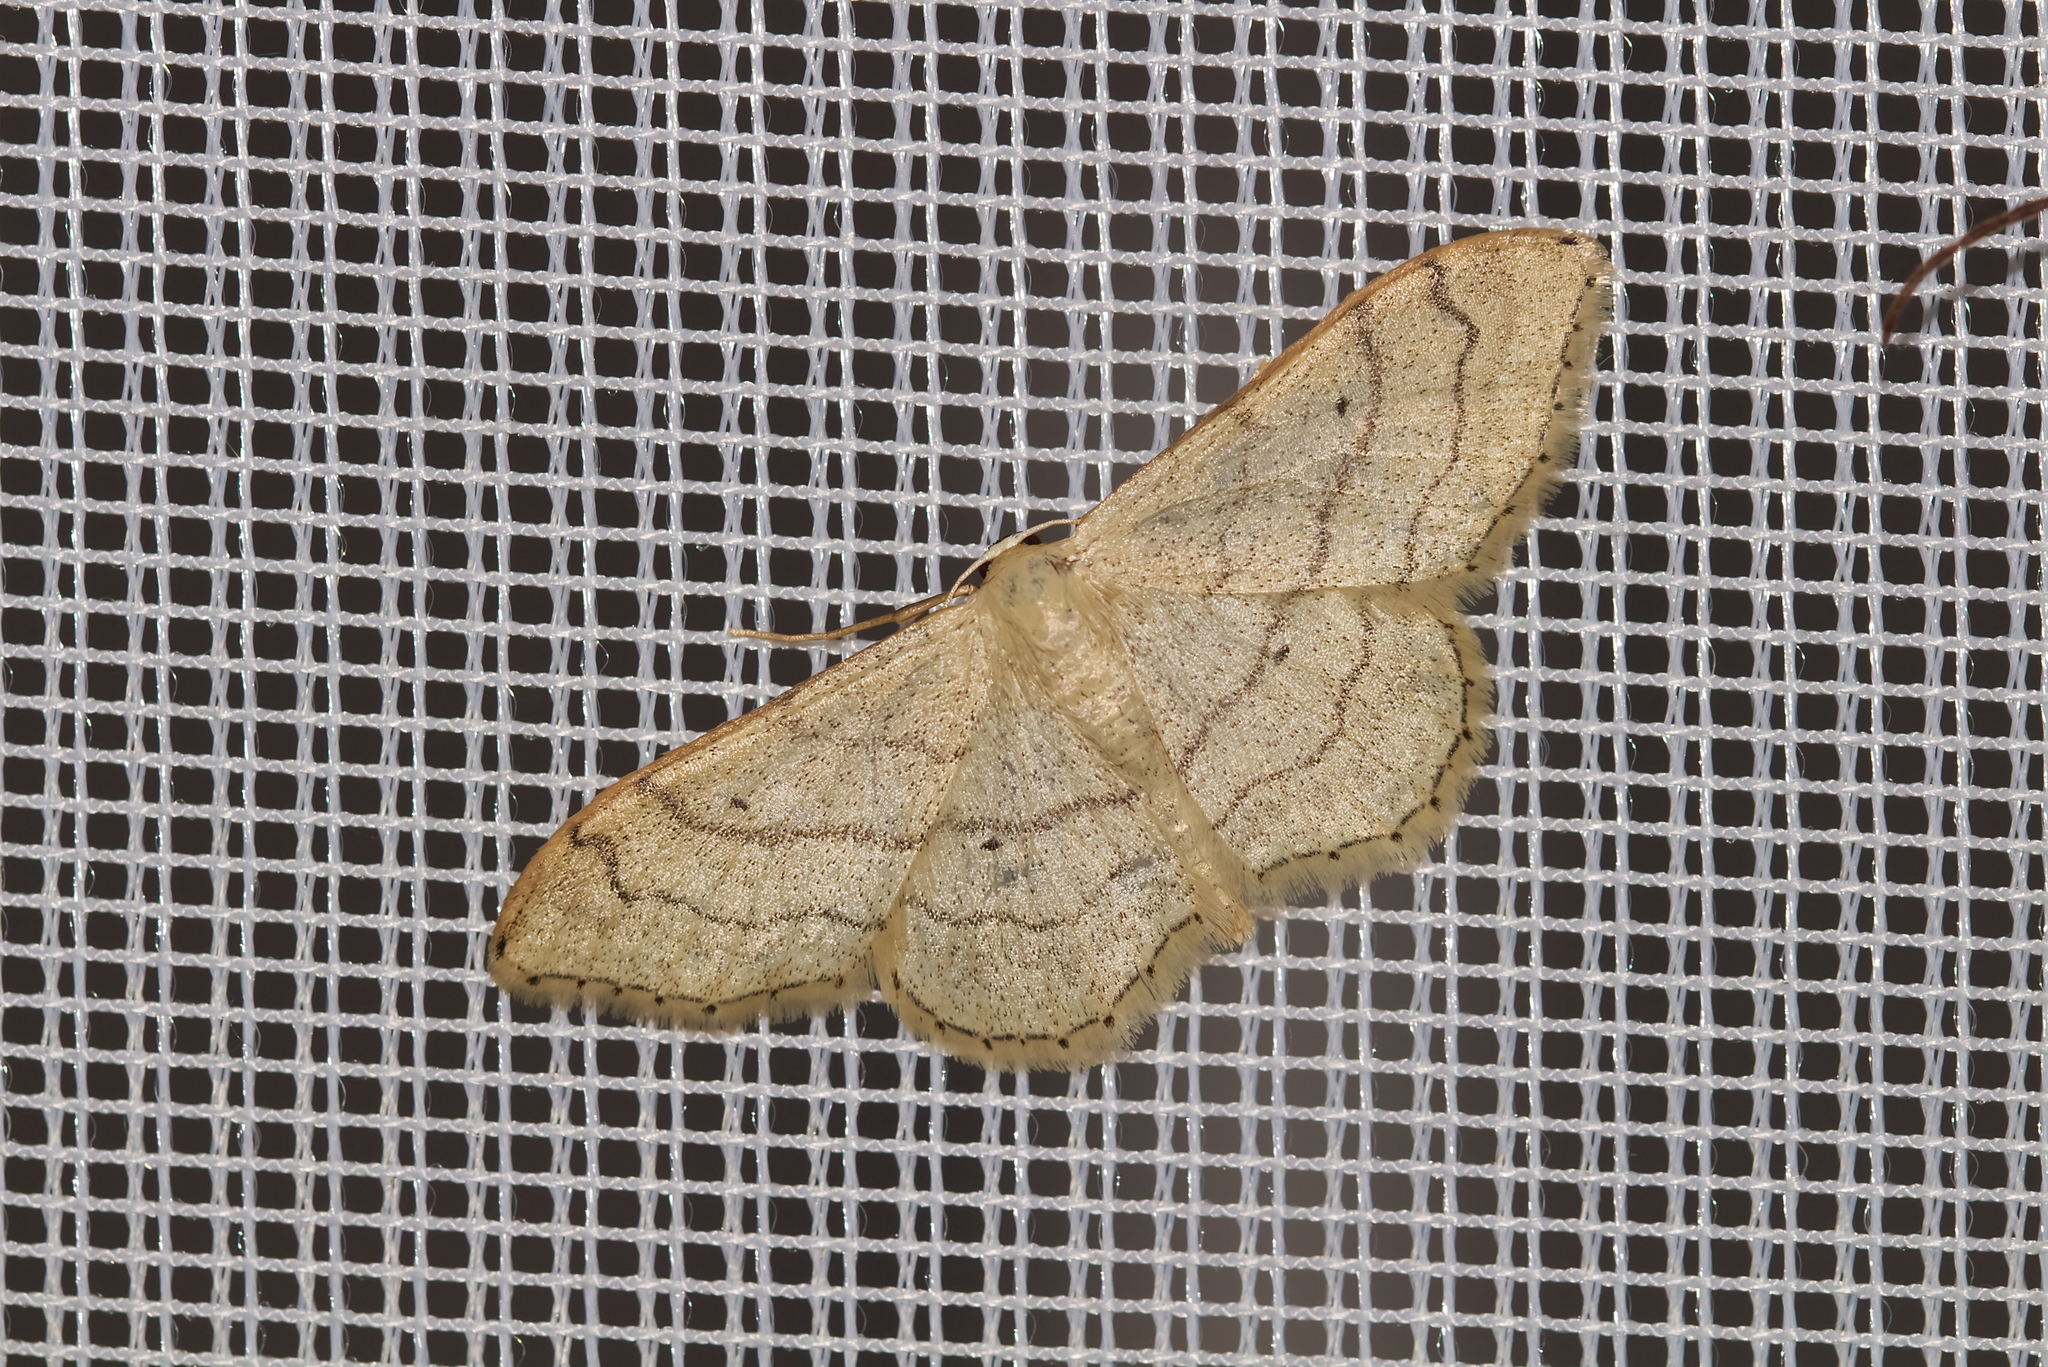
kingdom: Animalia
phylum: Arthropoda
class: Insecta
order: Lepidoptera
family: Geometridae
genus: Idaea
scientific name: Idaea aversata
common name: Riband wave
